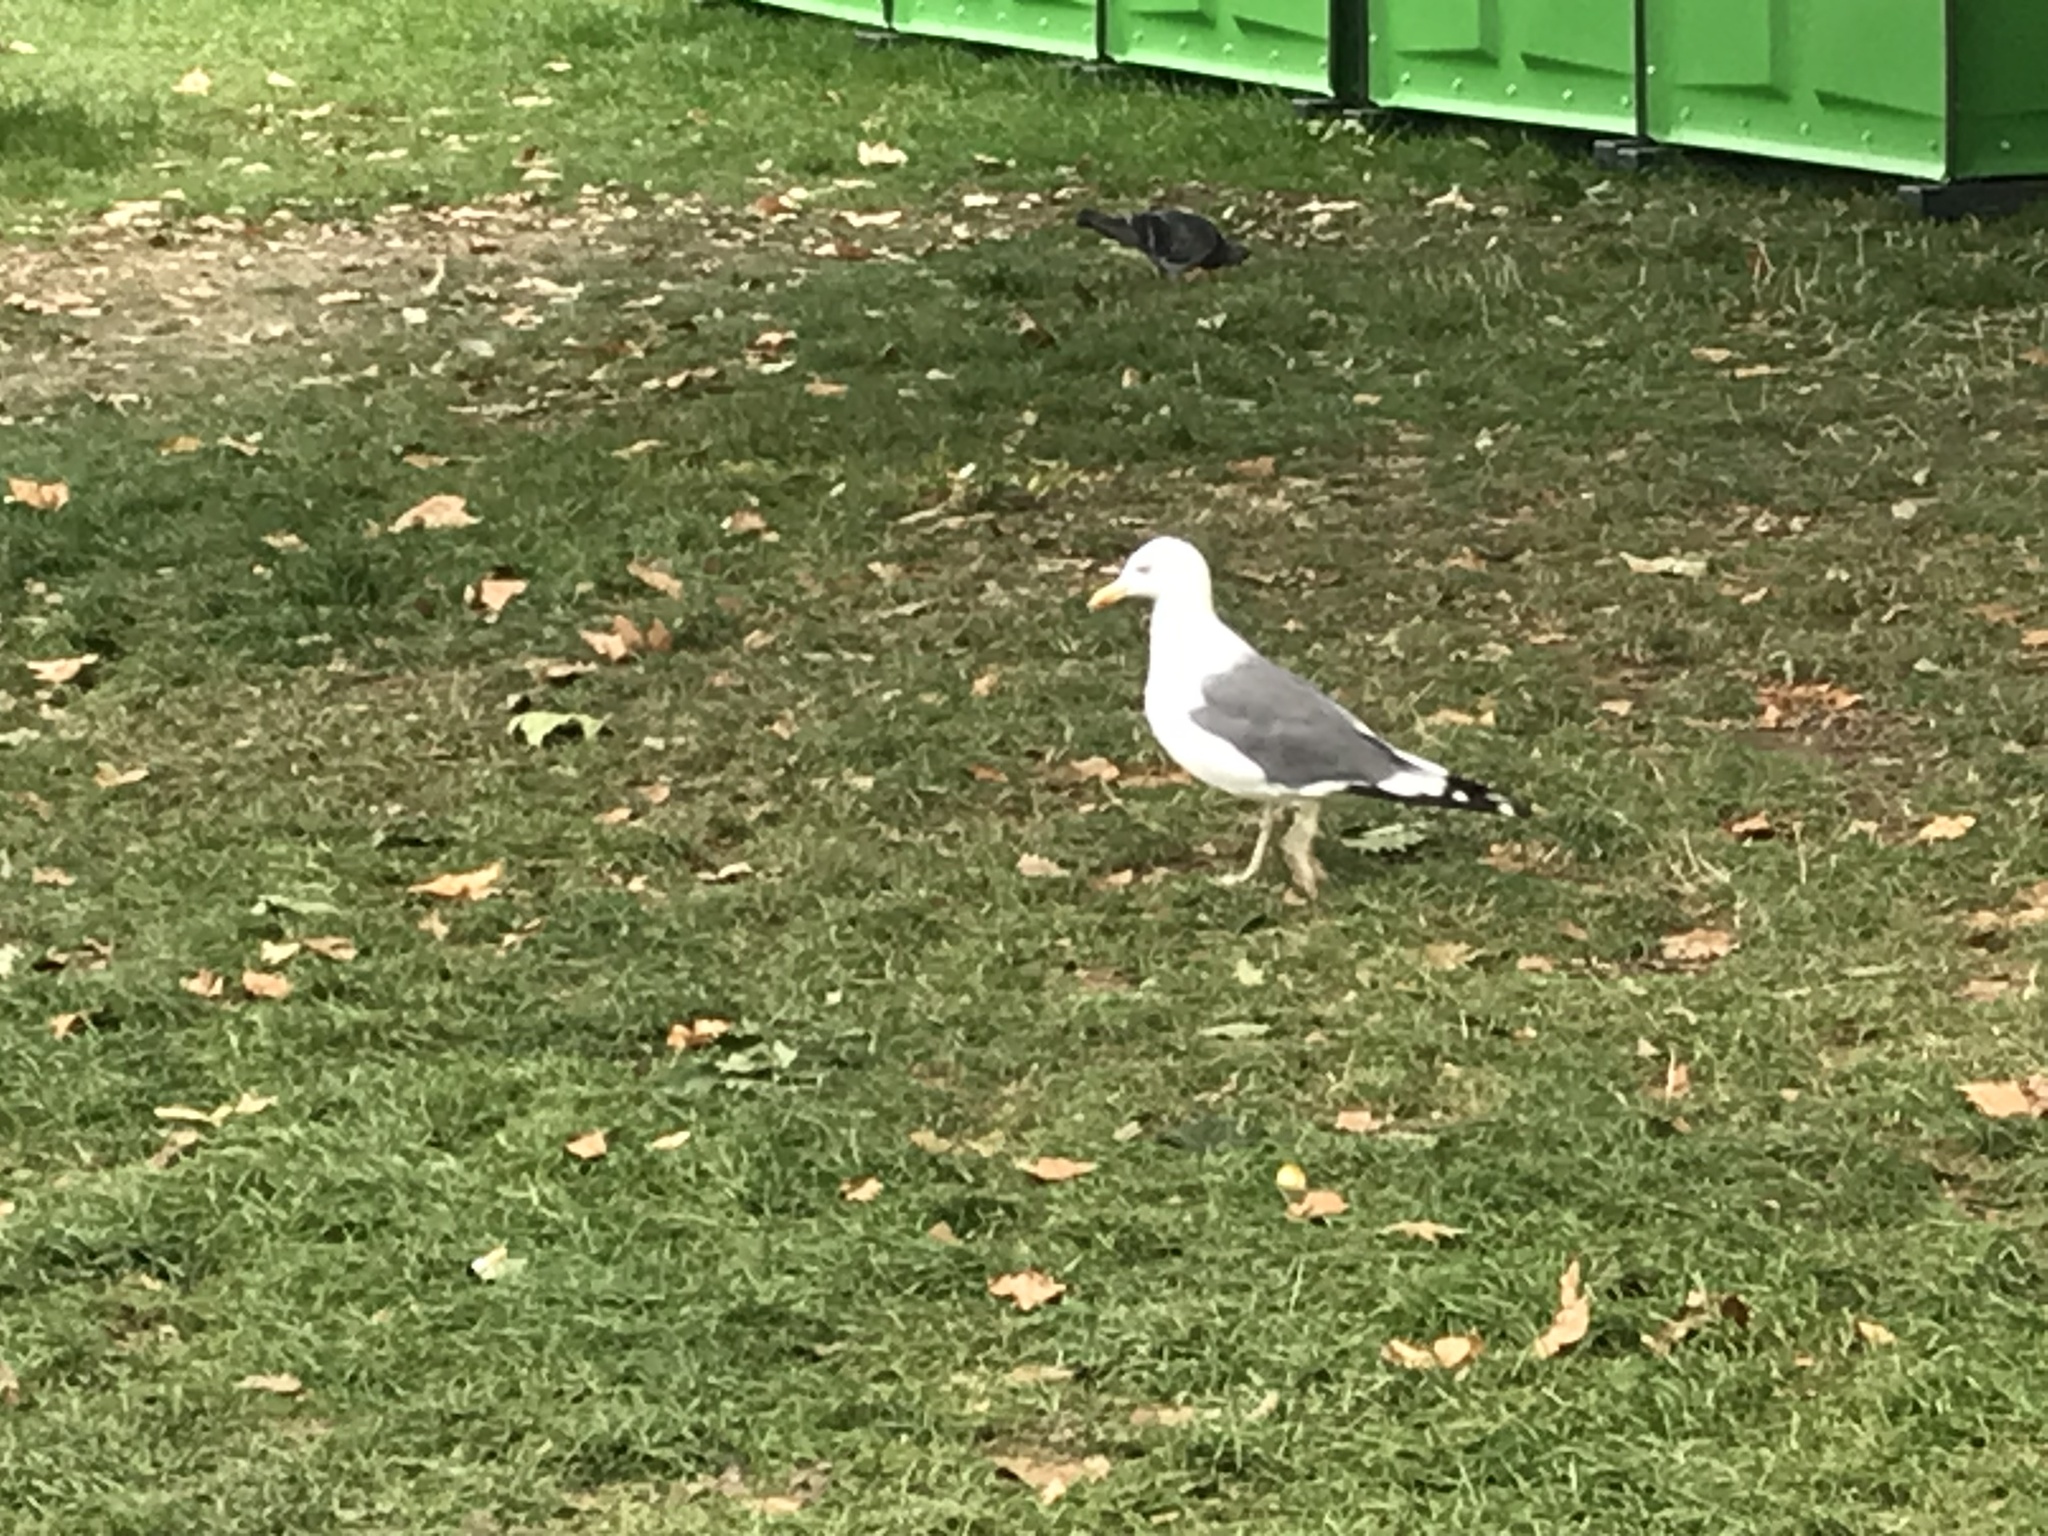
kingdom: Animalia
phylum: Chordata
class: Aves
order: Charadriiformes
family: Laridae
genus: Larus
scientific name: Larus fuscus
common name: Lesser black-backed gull
